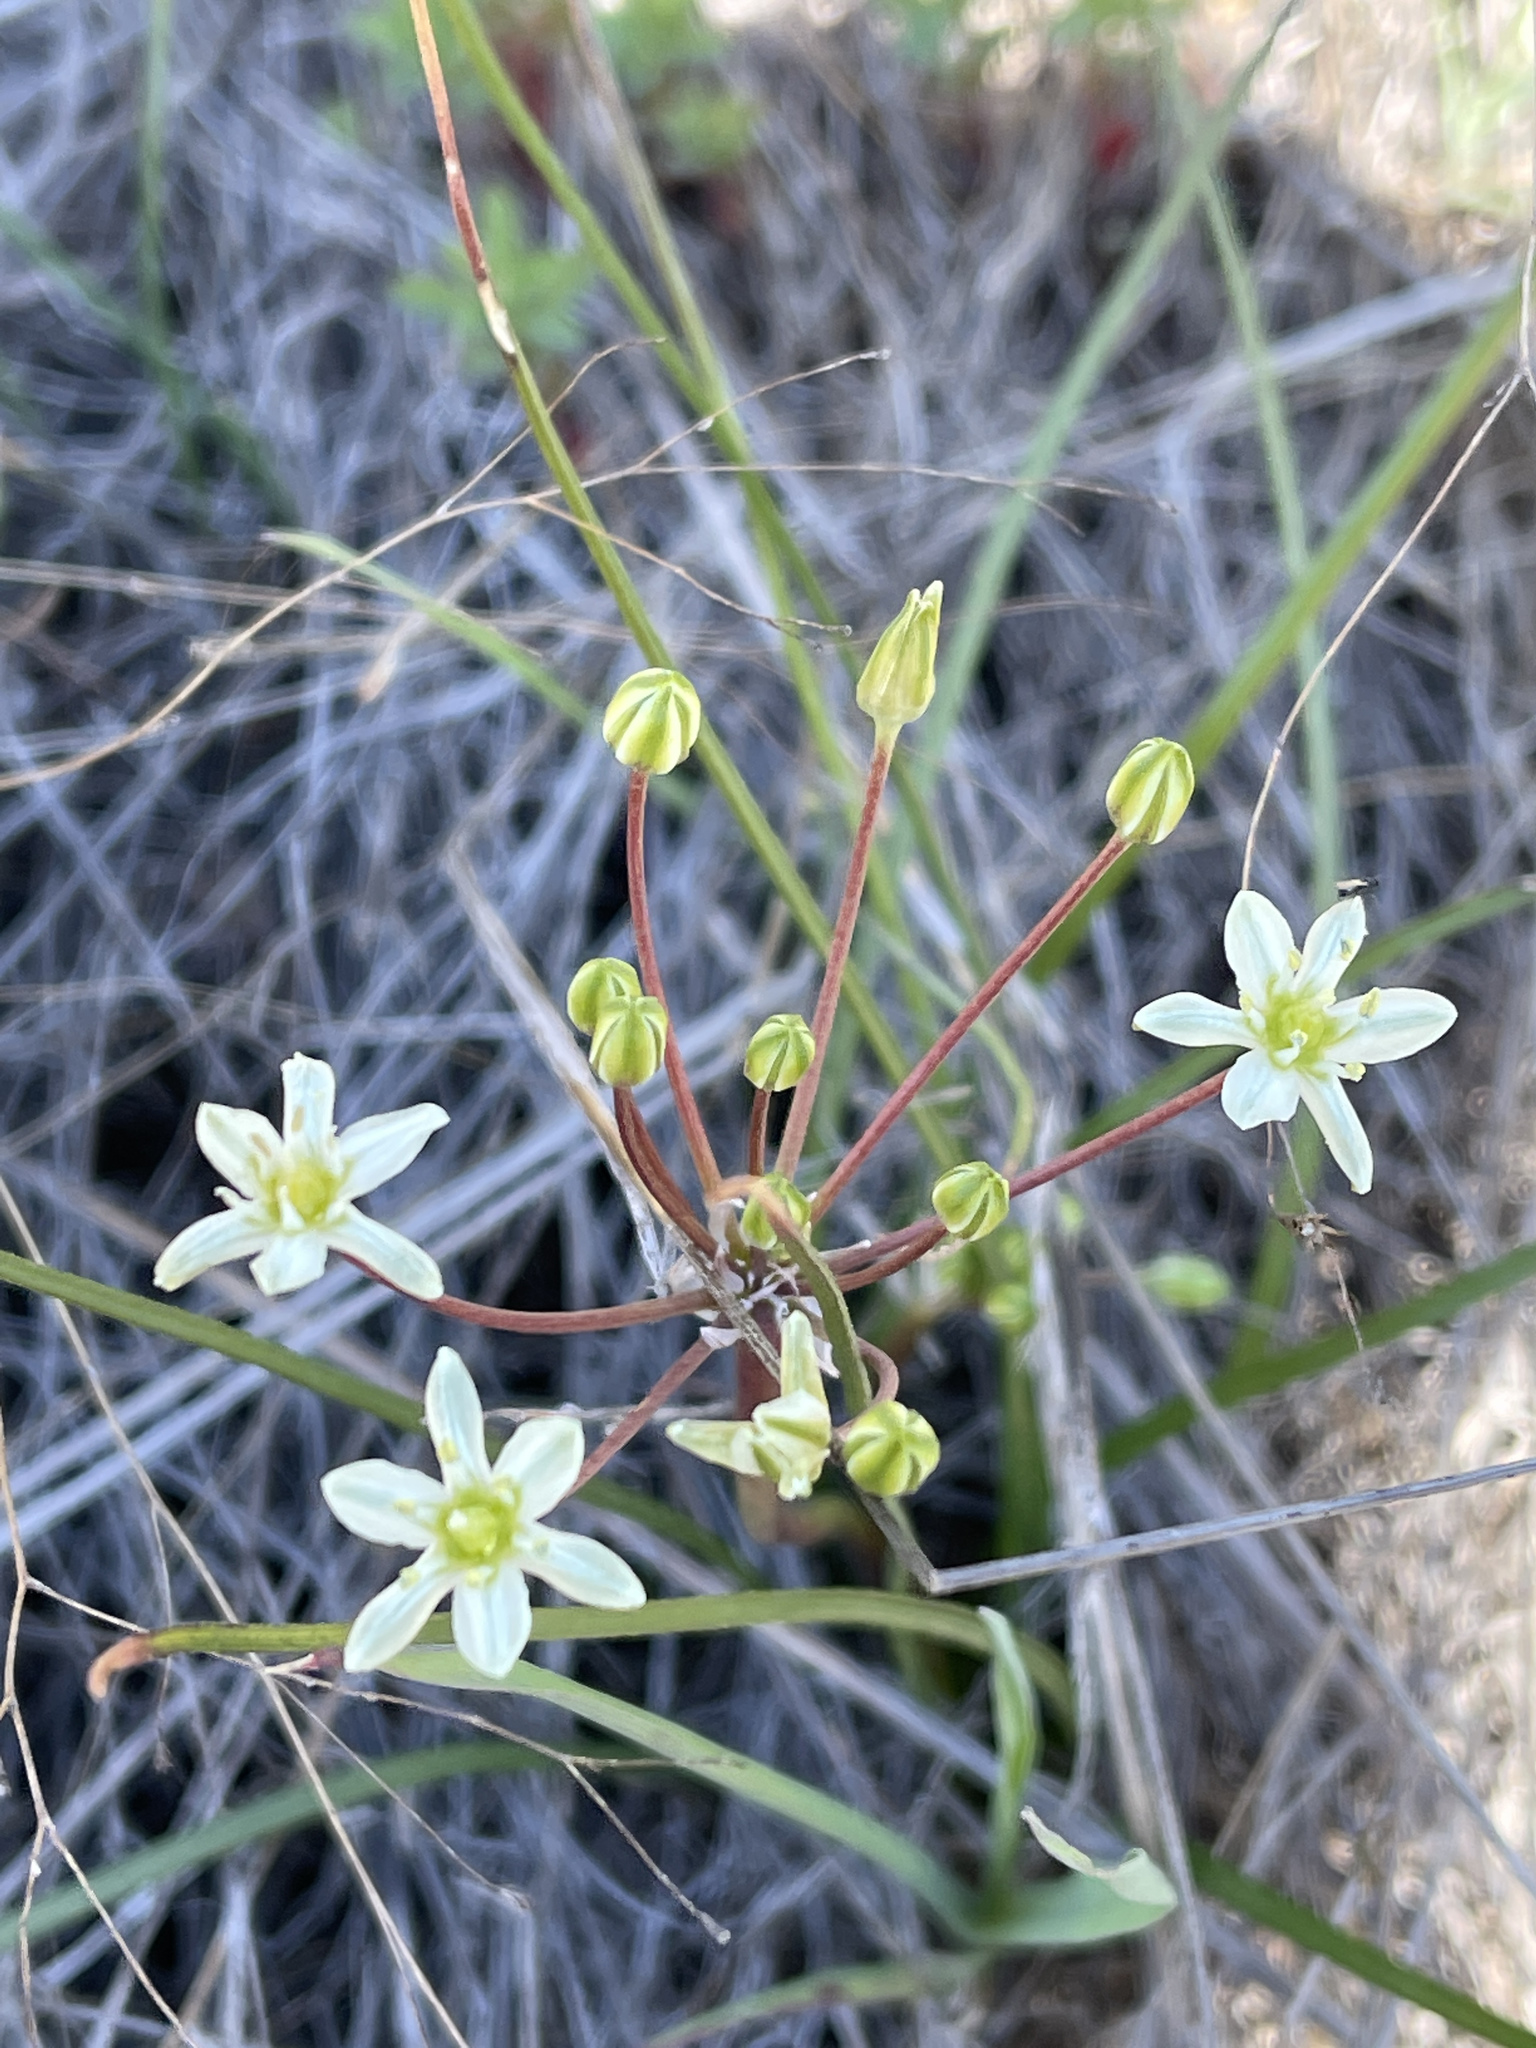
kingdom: Plantae
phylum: Tracheophyta
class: Liliopsida
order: Asparagales
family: Asparagaceae
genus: Muilla
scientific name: Muilla maritima
